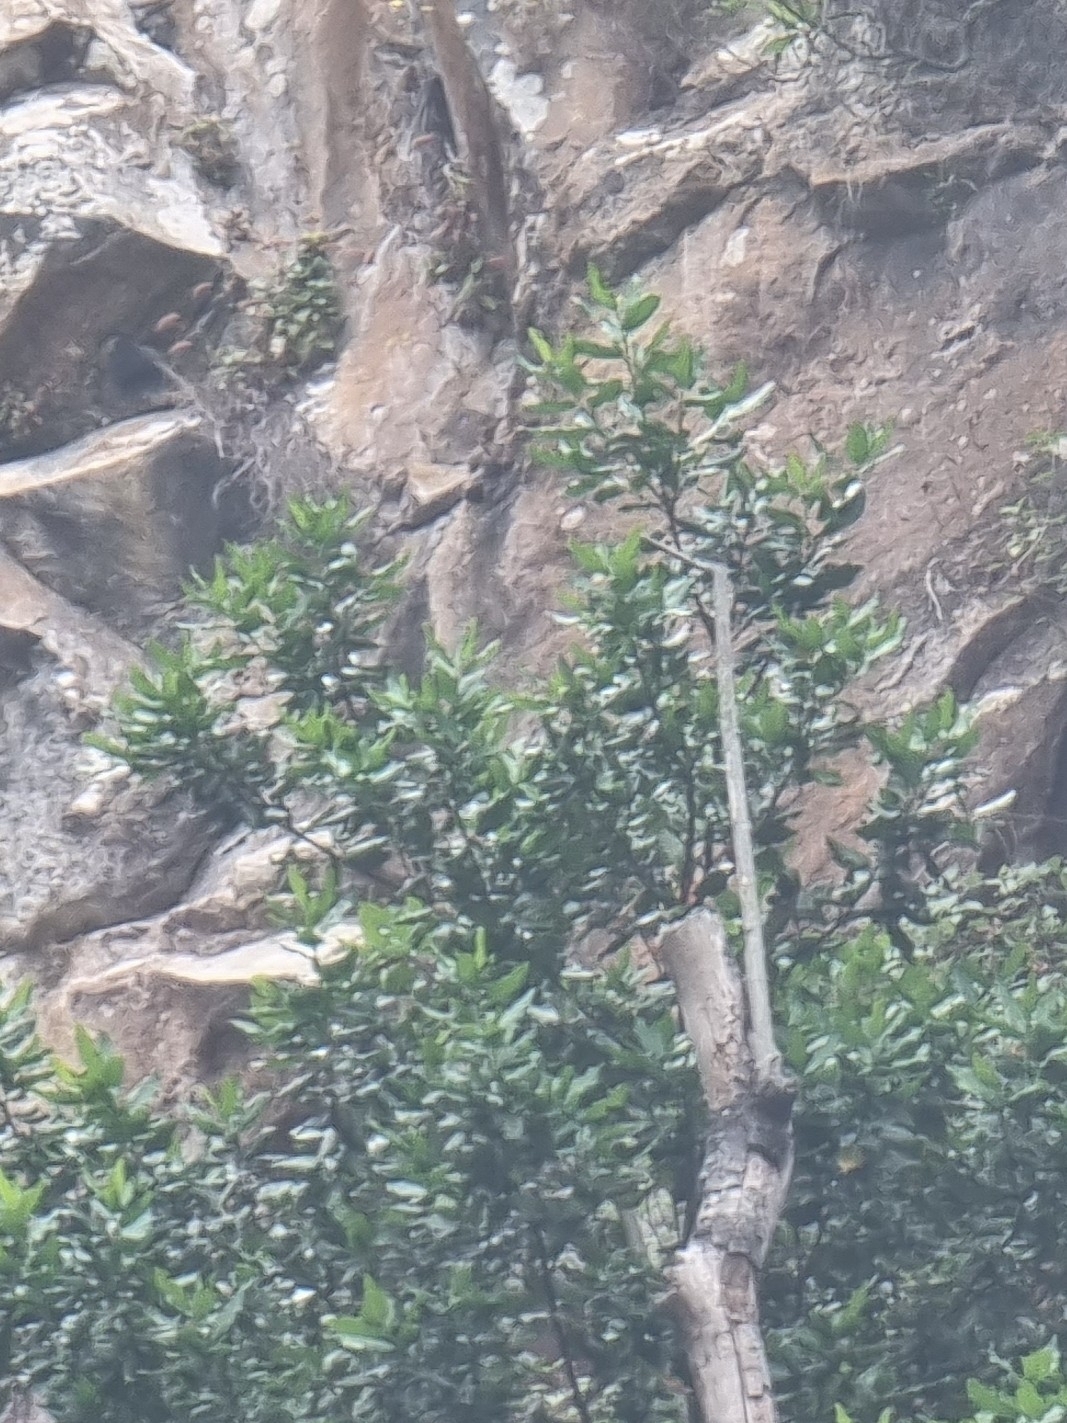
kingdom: Plantae
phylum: Tracheophyta
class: Magnoliopsida
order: Laurales
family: Lauraceae
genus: Mespilodaphne
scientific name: Mespilodaphne foetens
